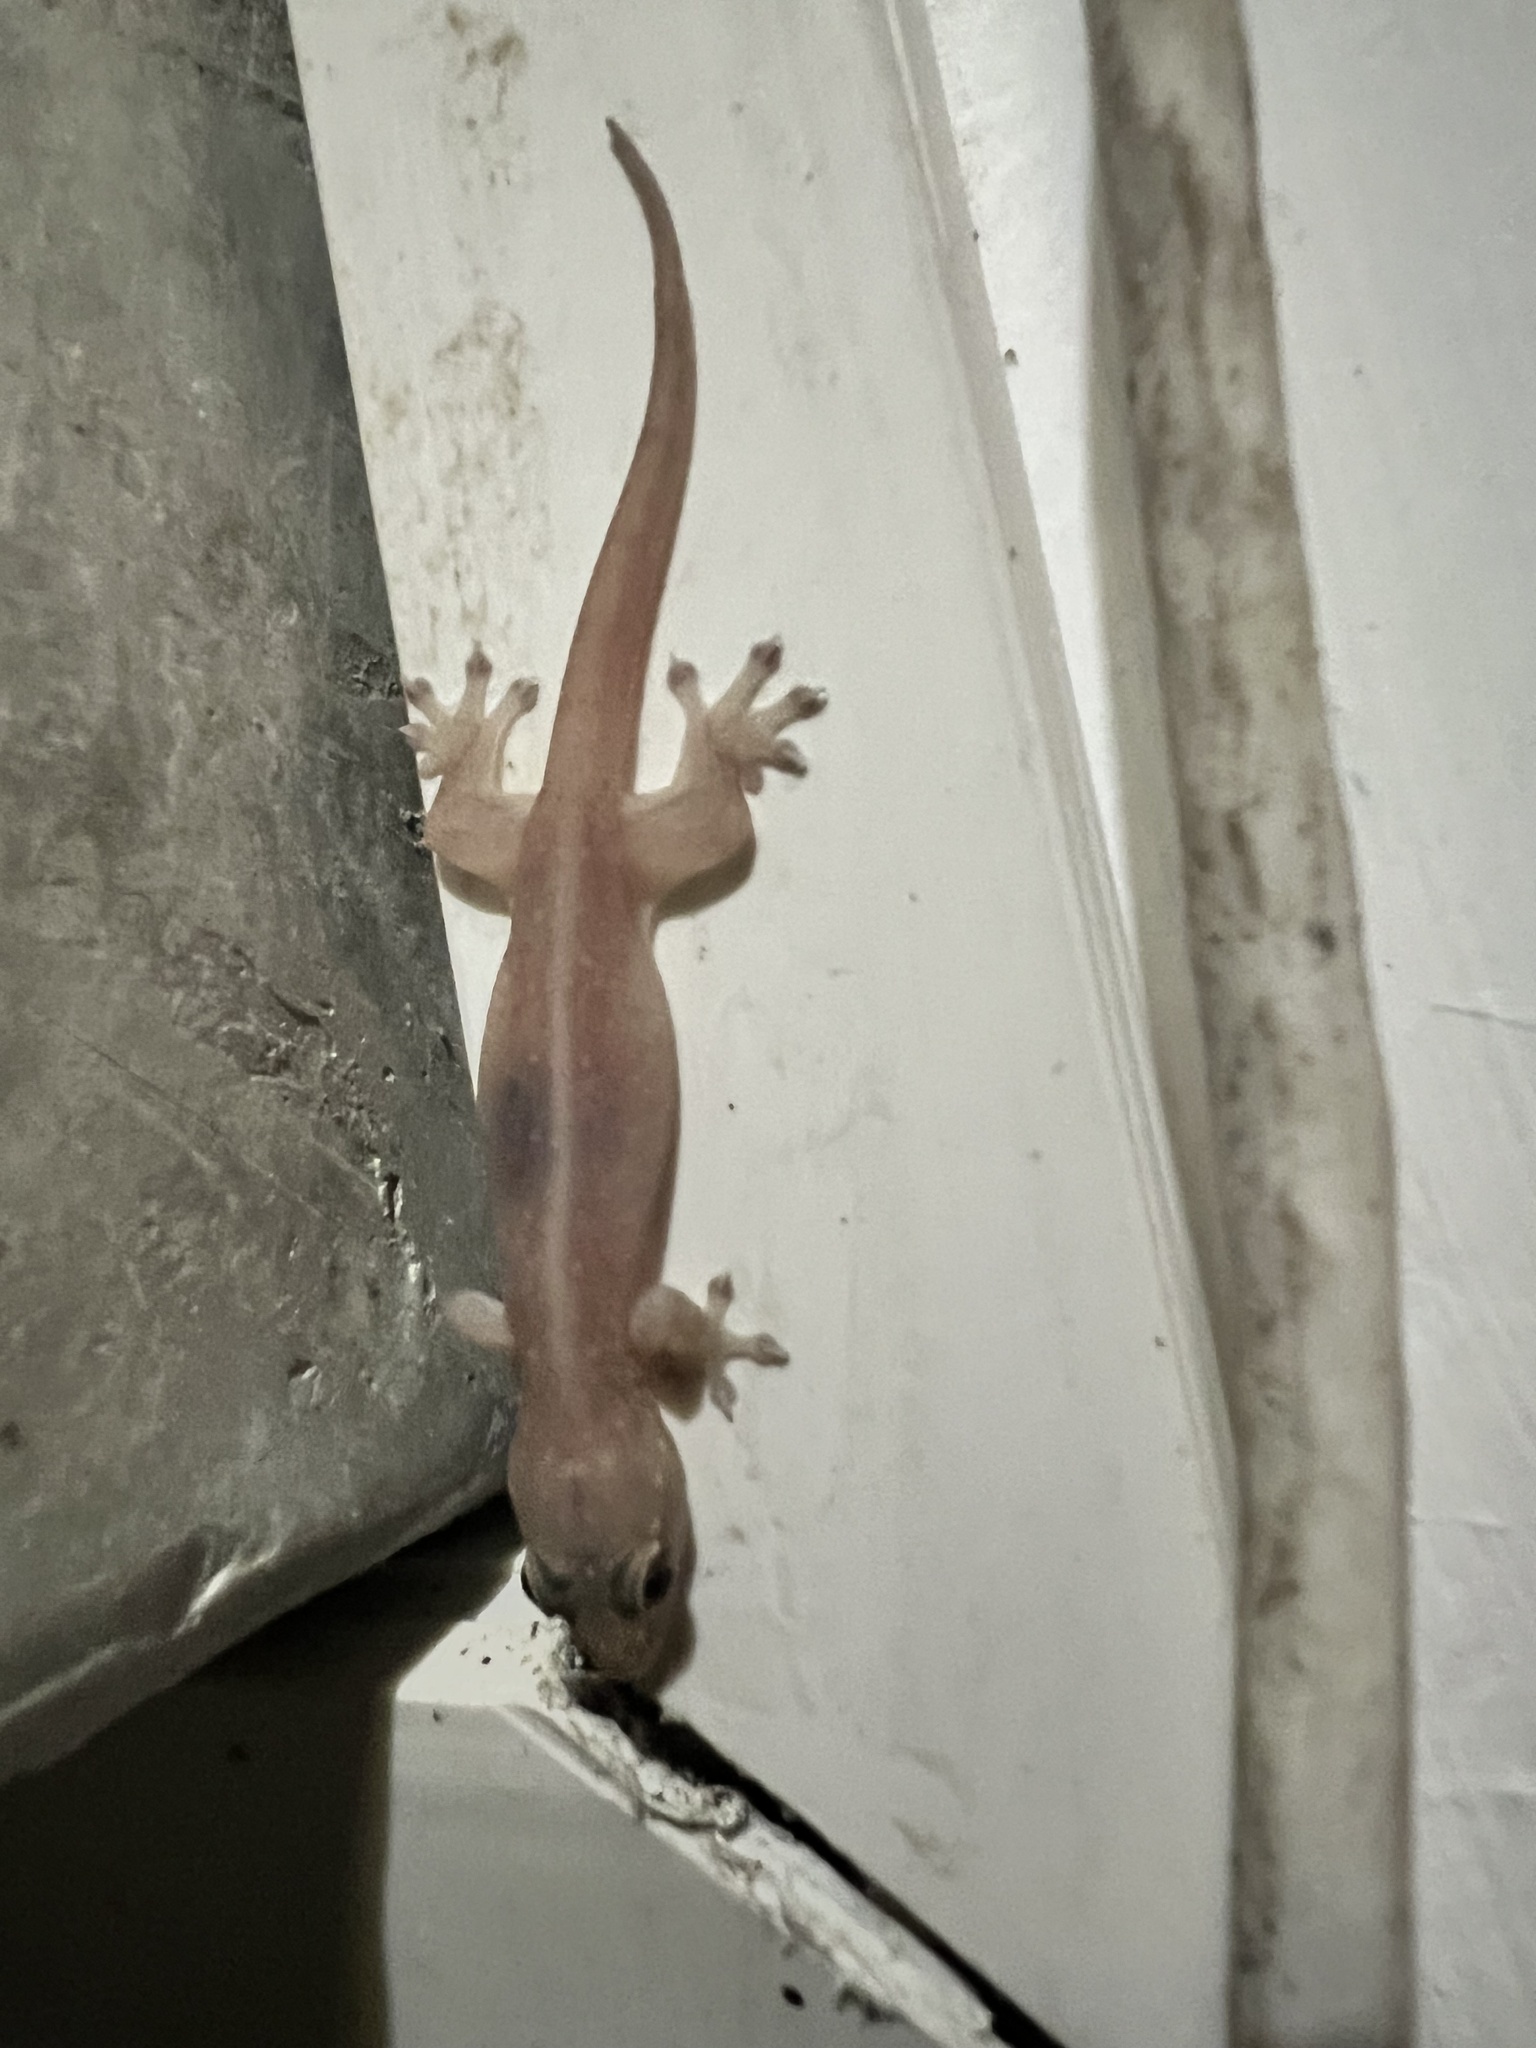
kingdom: Animalia
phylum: Chordata
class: Squamata
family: Gekkonidae
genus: Gehyra
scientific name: Gehyra mutilata
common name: Stump-toed gecko
